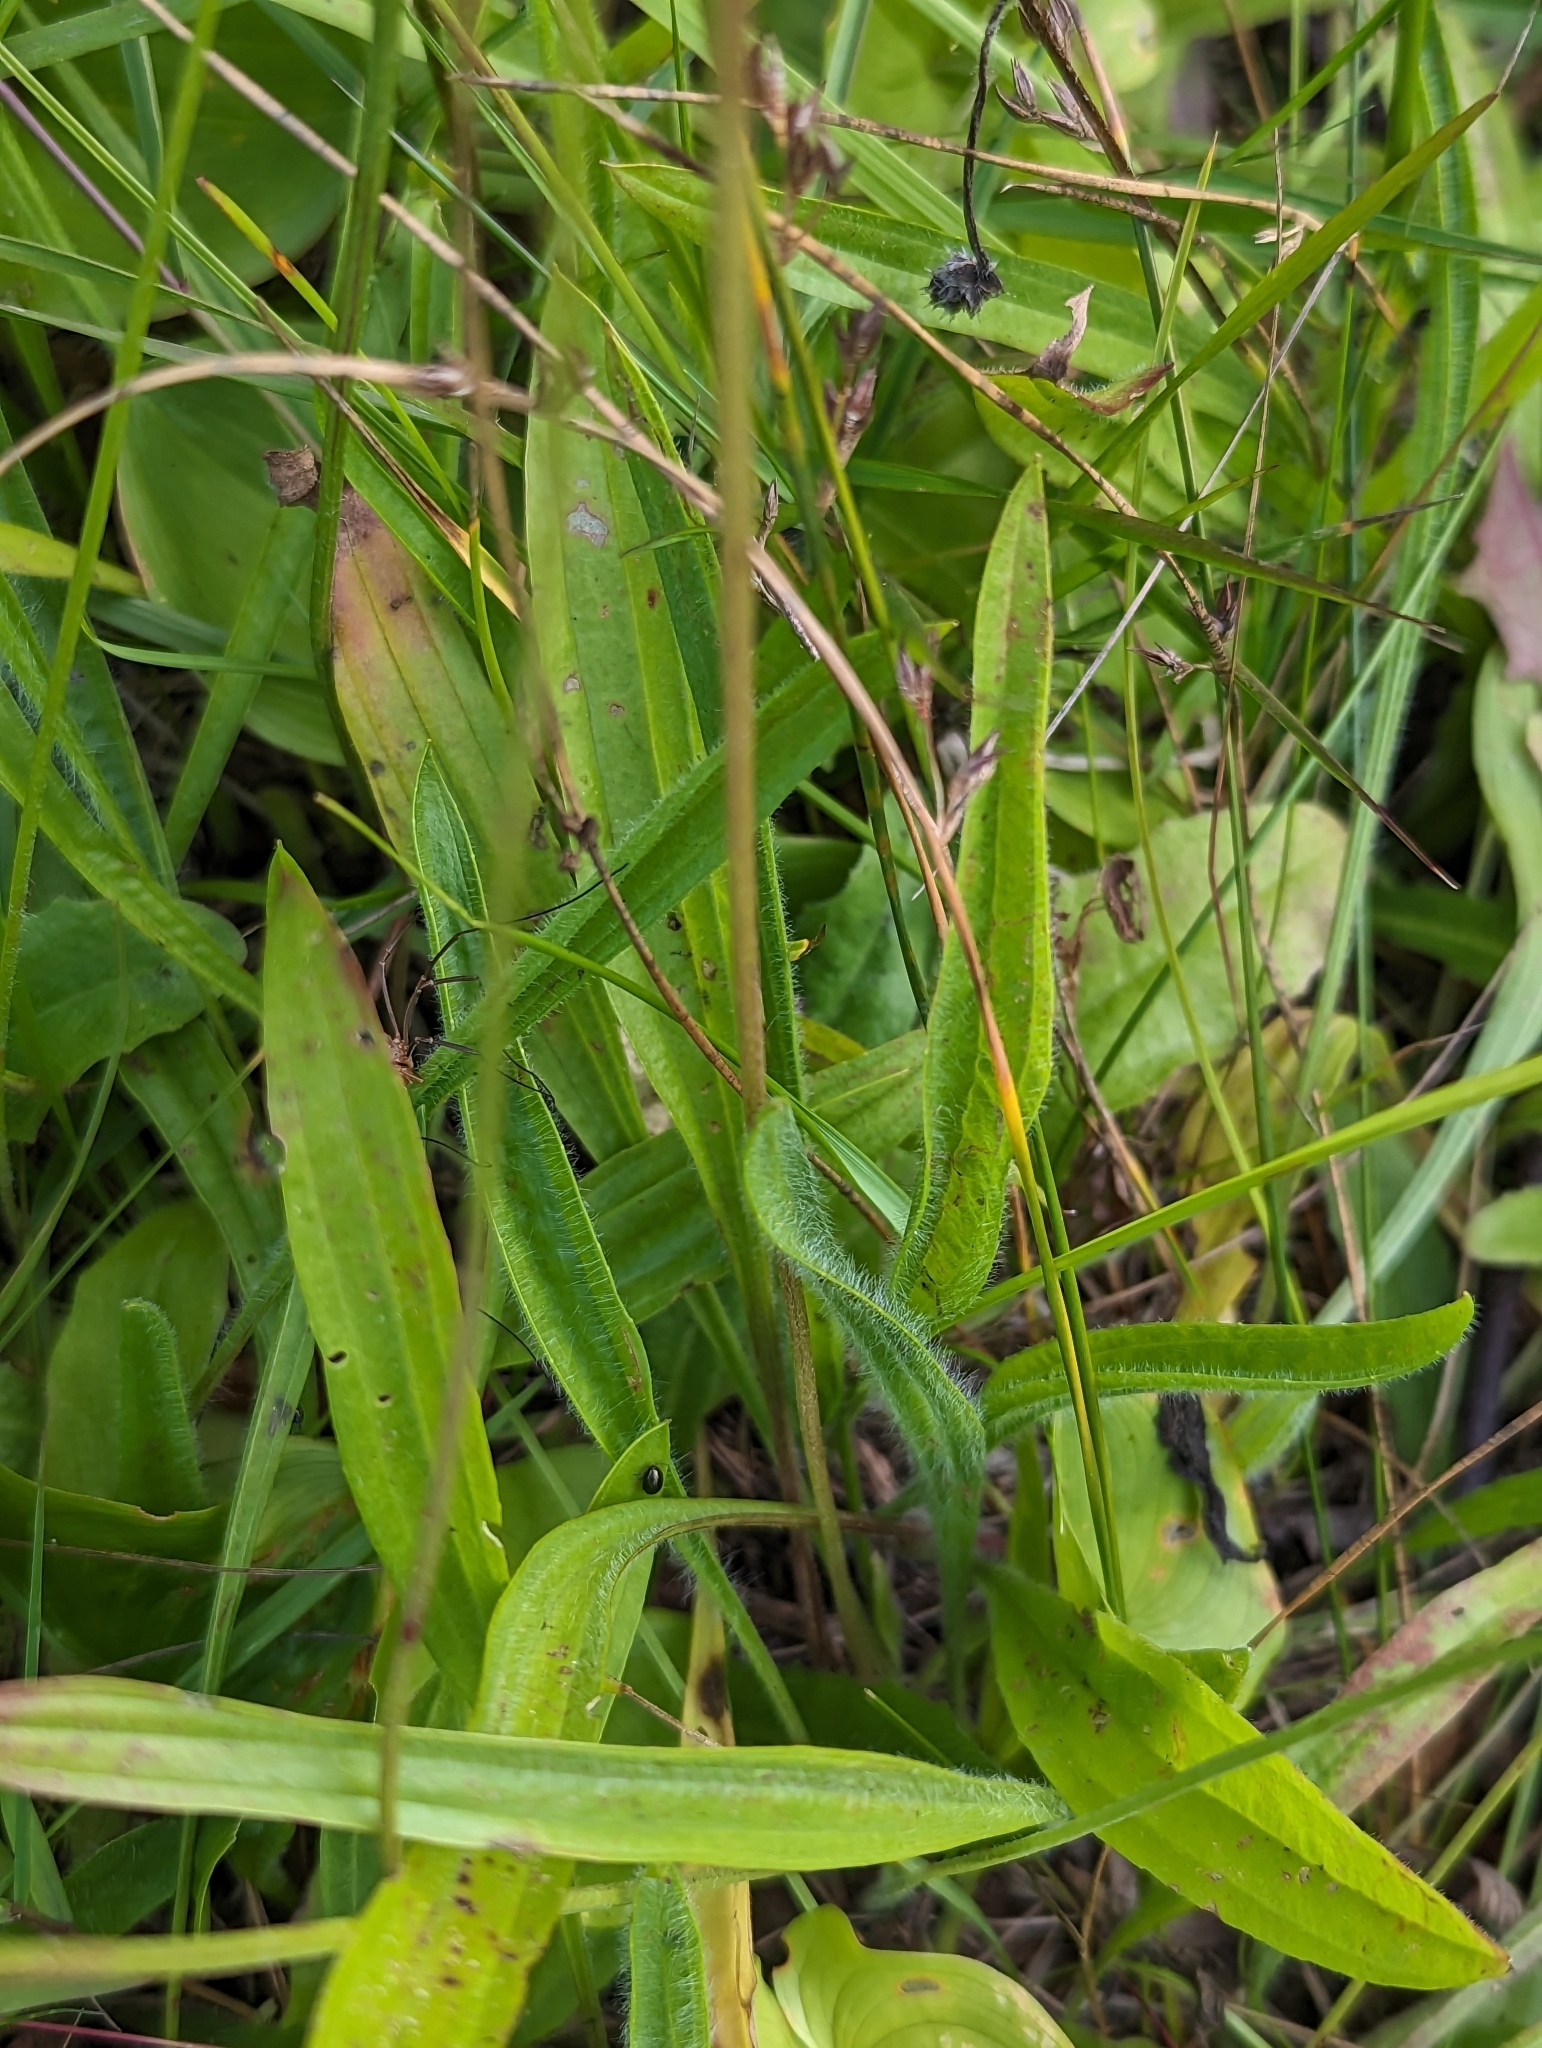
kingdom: Plantae
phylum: Tracheophyta
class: Magnoliopsida
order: Lamiales
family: Plantaginaceae
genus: Plantago
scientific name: Plantago lanceolata
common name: Ribwort plantain
